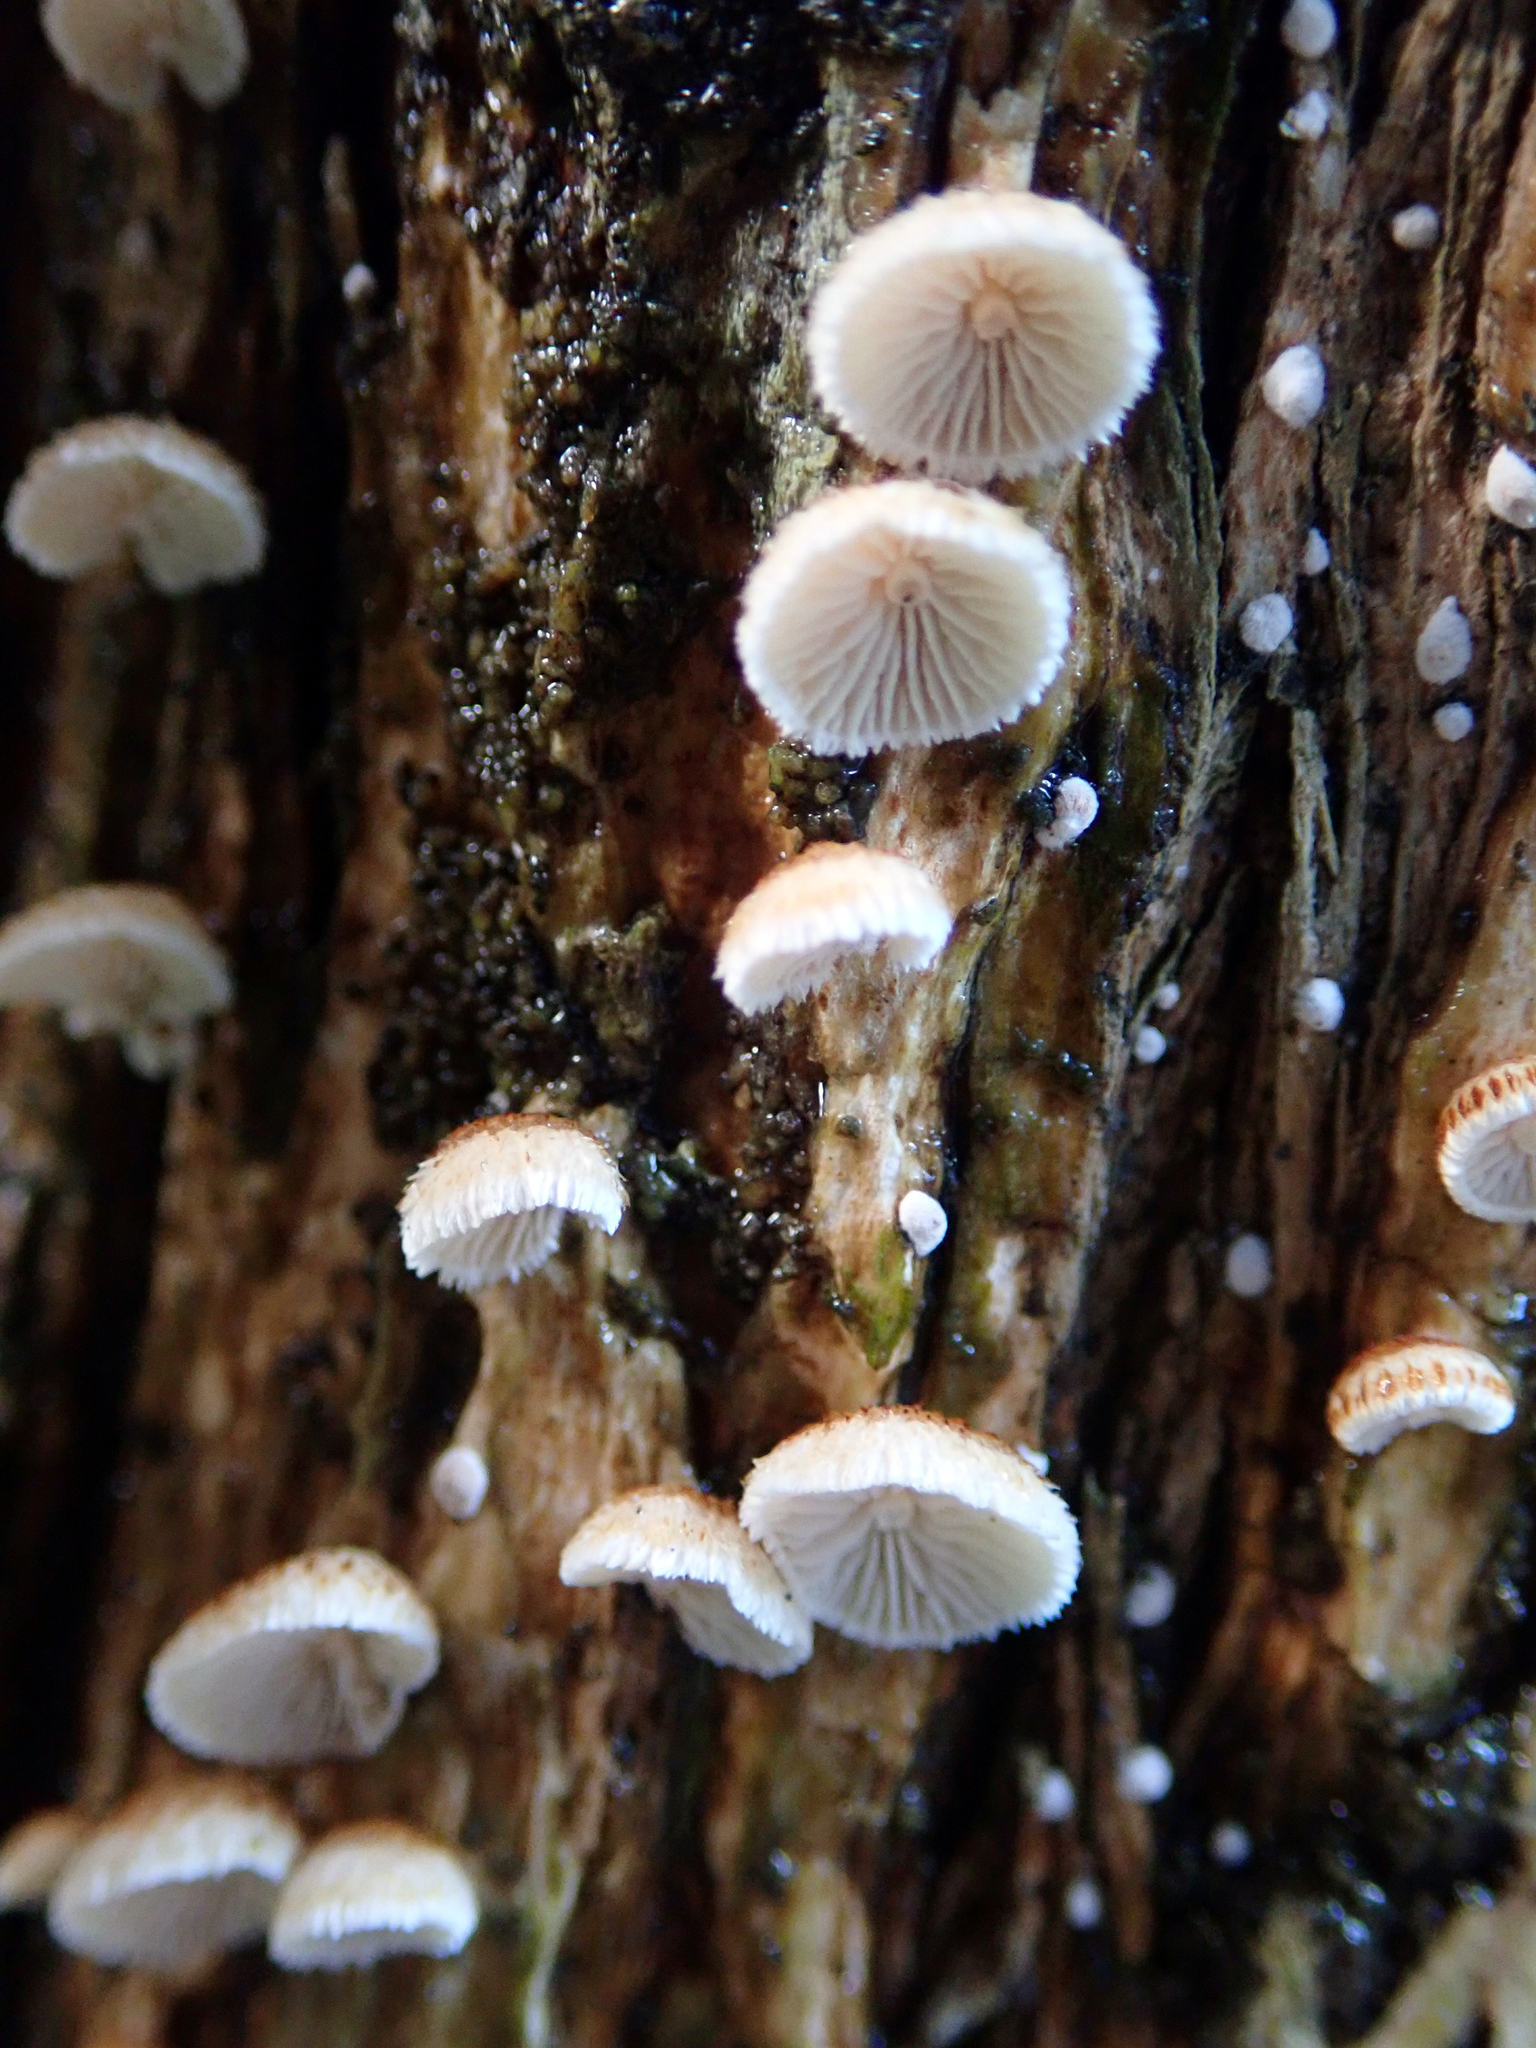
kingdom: Fungi
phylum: Basidiomycota
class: Agaricomycetes
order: Agaricales
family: Marasmiaceae
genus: Chaetocalathus
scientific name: Chaetocalathus cocciformis
